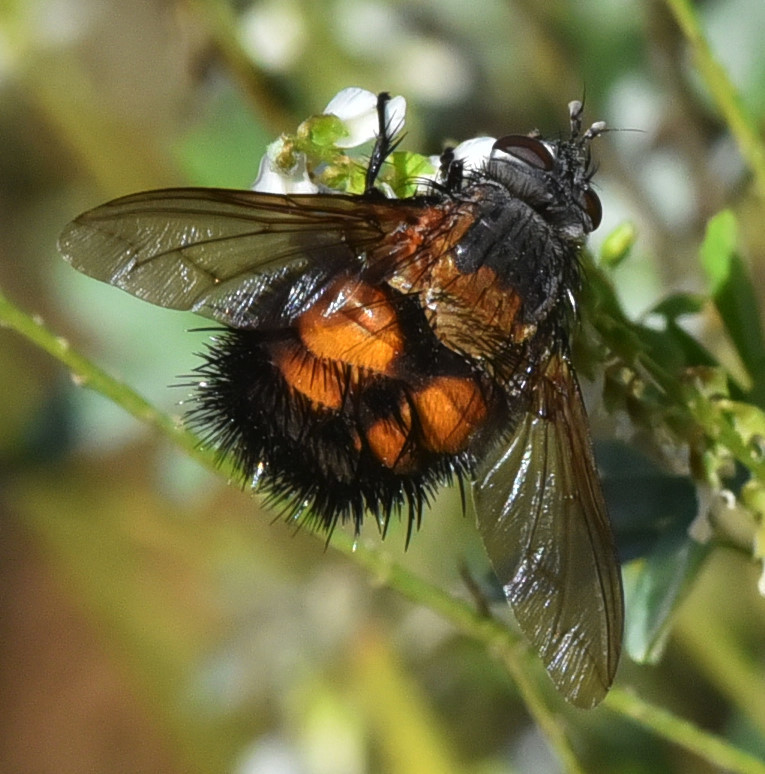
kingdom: Animalia
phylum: Arthropoda
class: Insecta
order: Diptera
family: Tachinidae
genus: Paradejeania
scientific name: Paradejeania rutilioides
